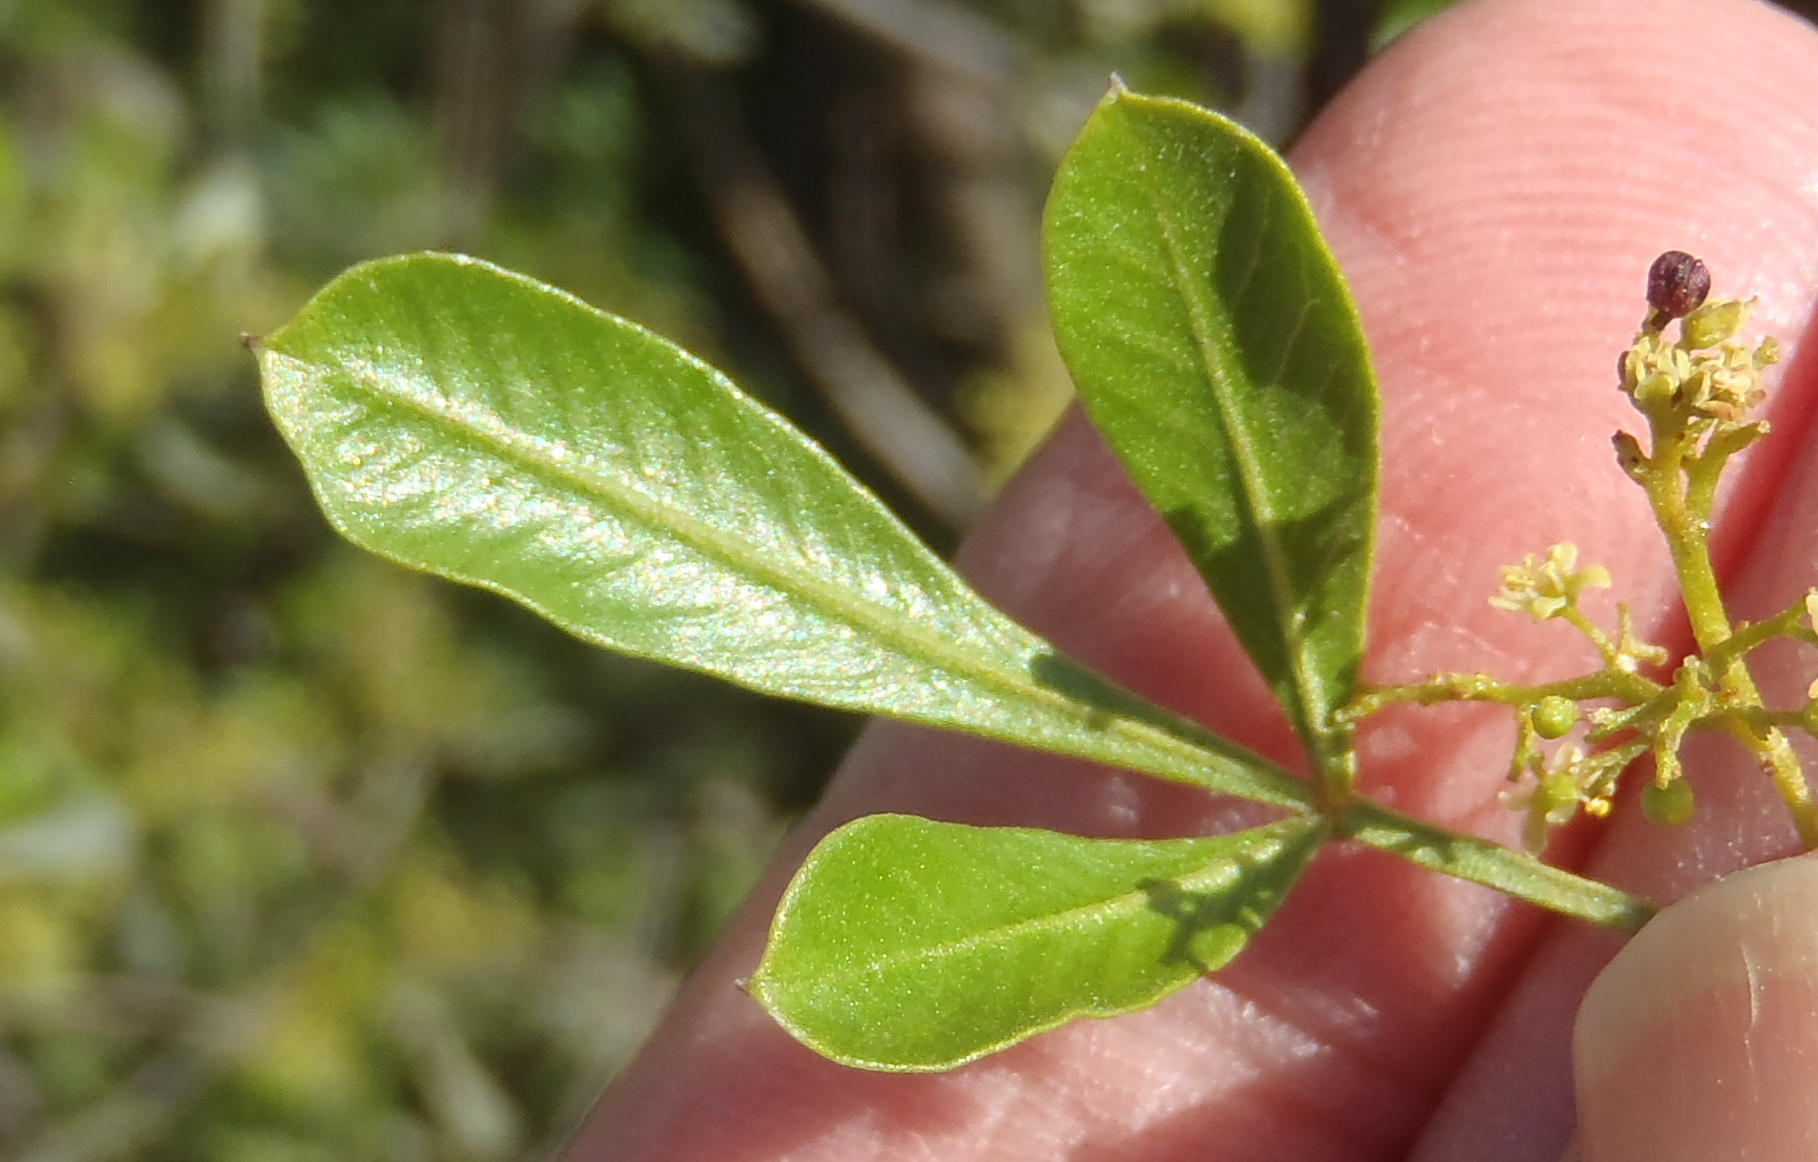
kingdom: Plantae
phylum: Tracheophyta
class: Magnoliopsida
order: Sapindales
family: Anacardiaceae
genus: Searsia
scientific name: Searsia pallens
